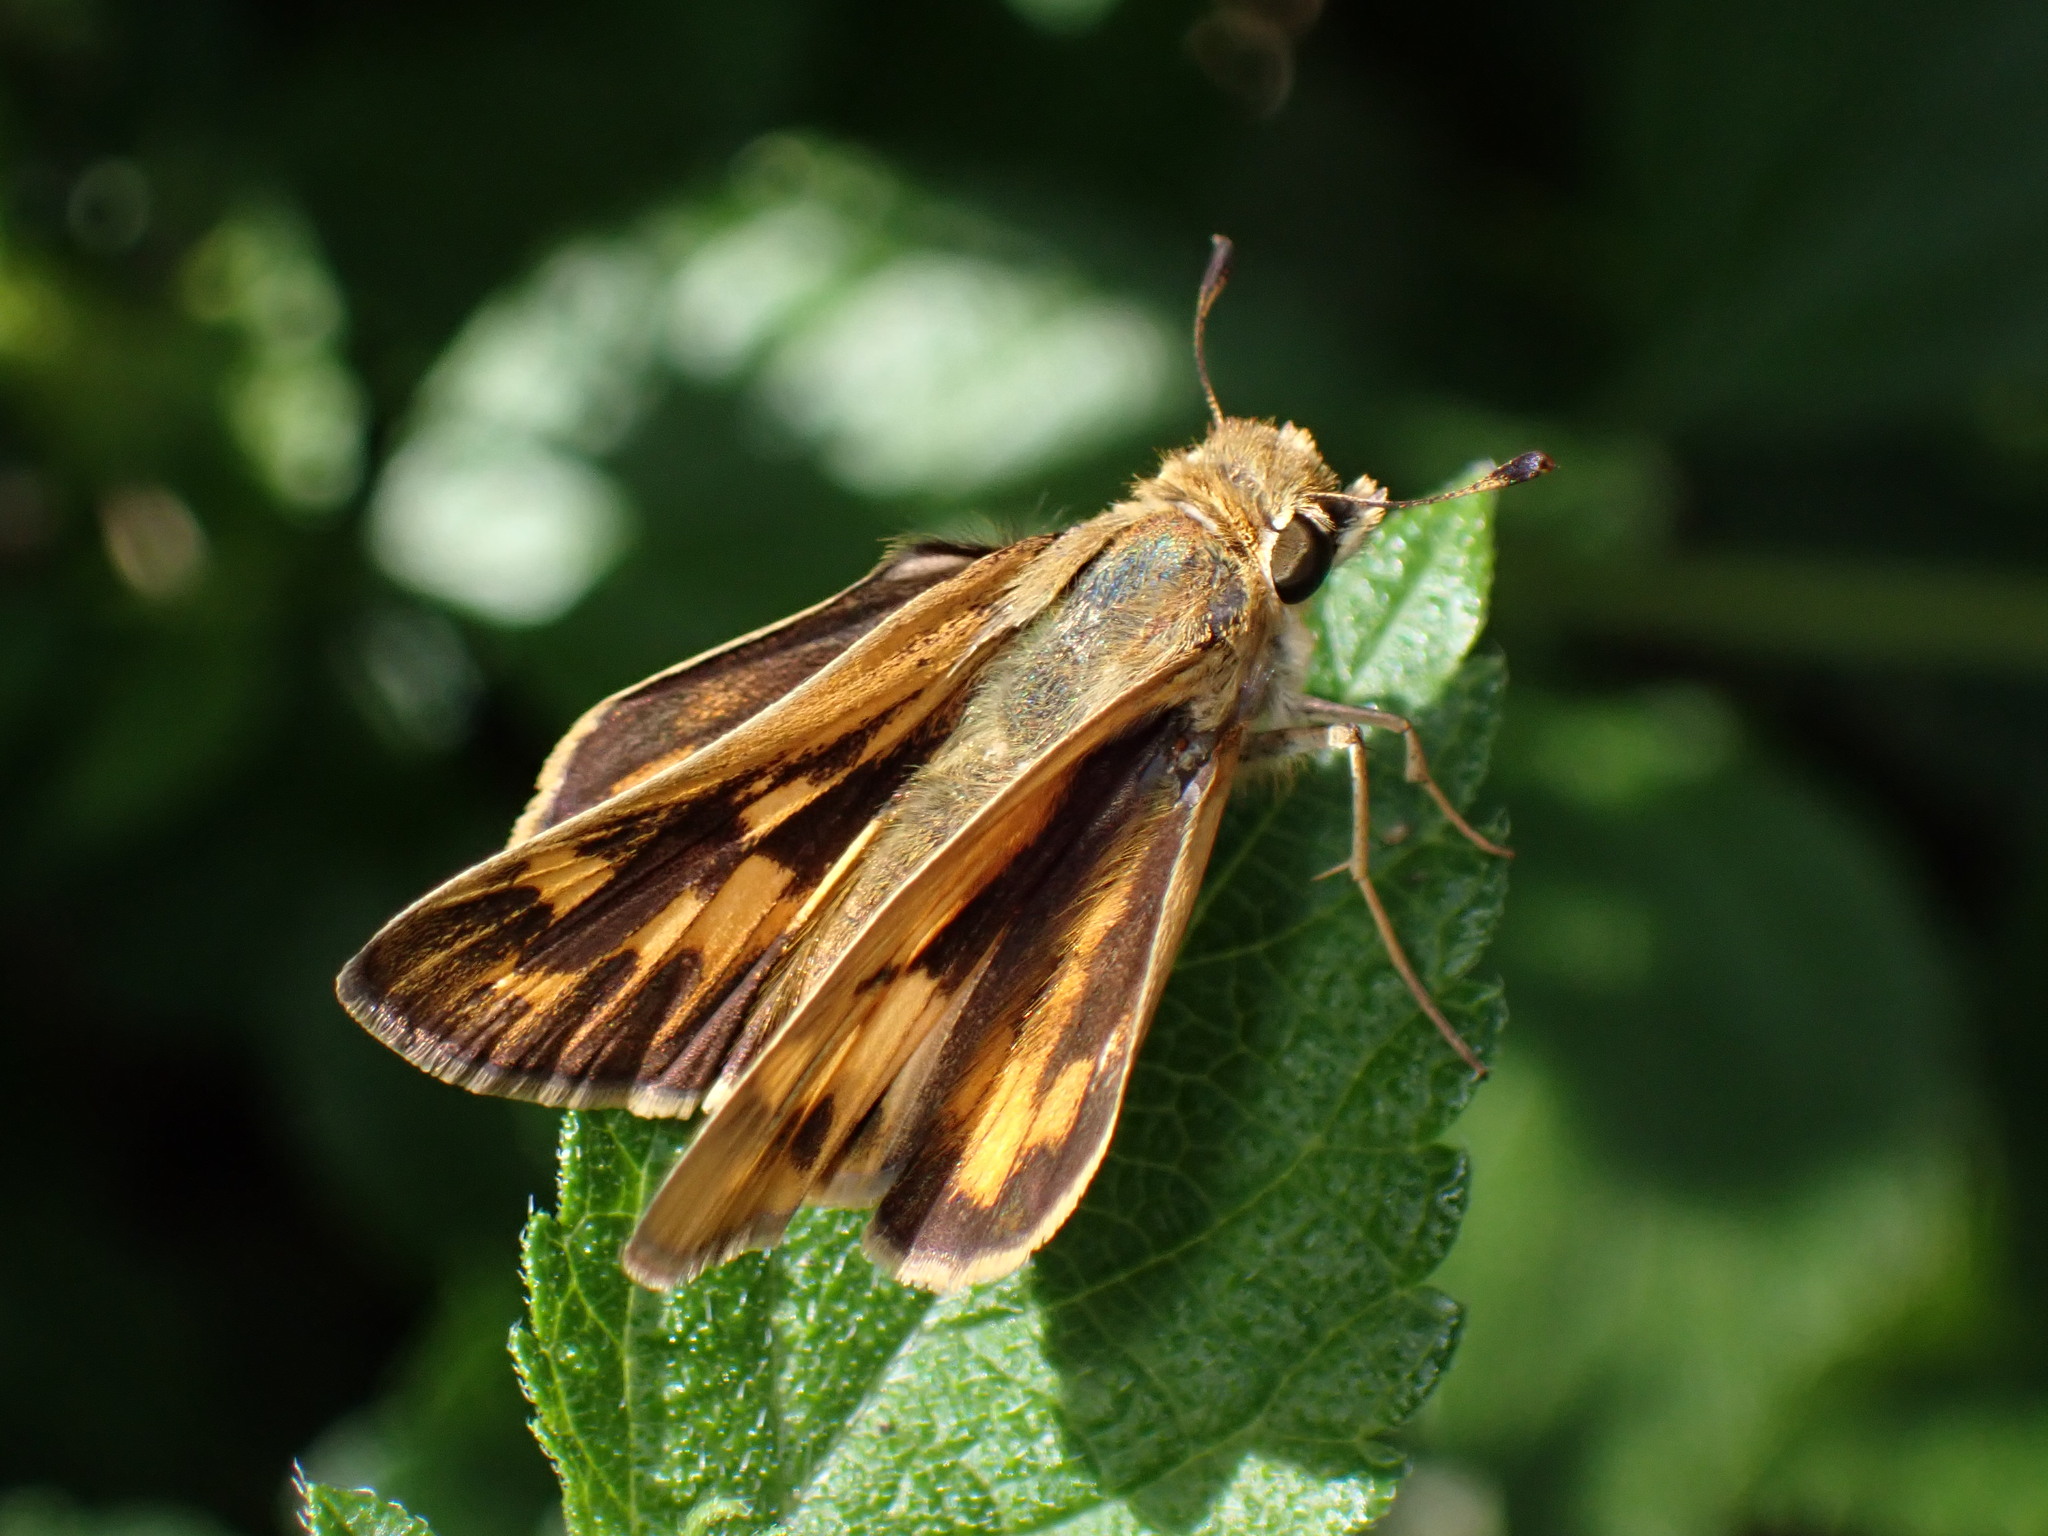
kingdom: Animalia
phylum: Arthropoda
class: Insecta
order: Lepidoptera
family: Hesperiidae
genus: Hylephila
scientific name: Hylephila phyleus
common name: Fiery skipper
